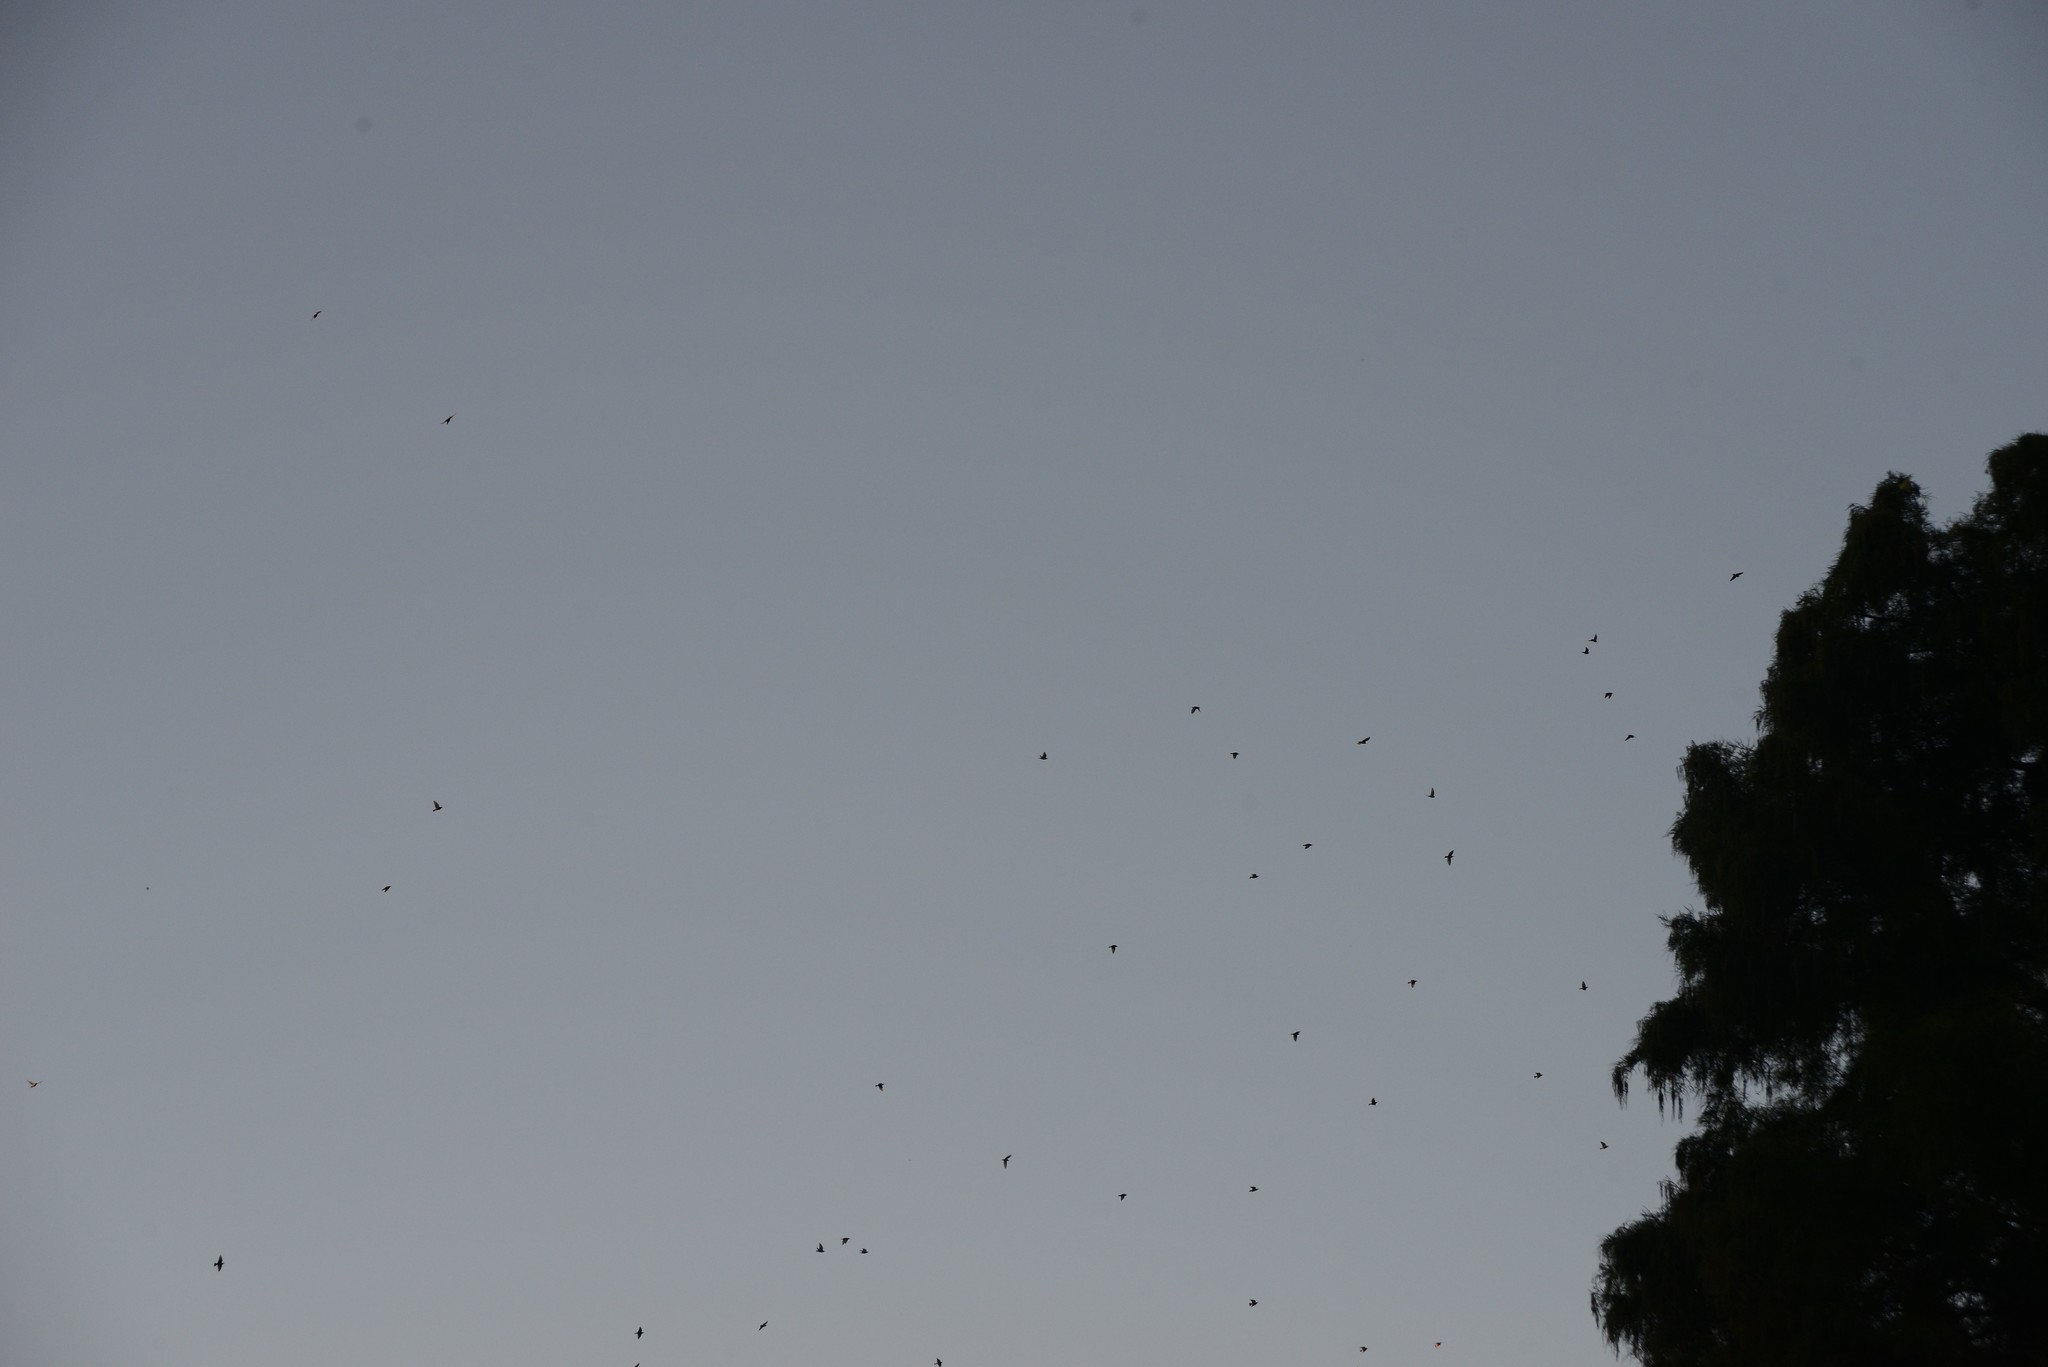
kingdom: Animalia
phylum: Chordata
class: Aves
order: Passeriformes
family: Sturnidae
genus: Sturnus
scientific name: Sturnus vulgaris
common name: Common starling
